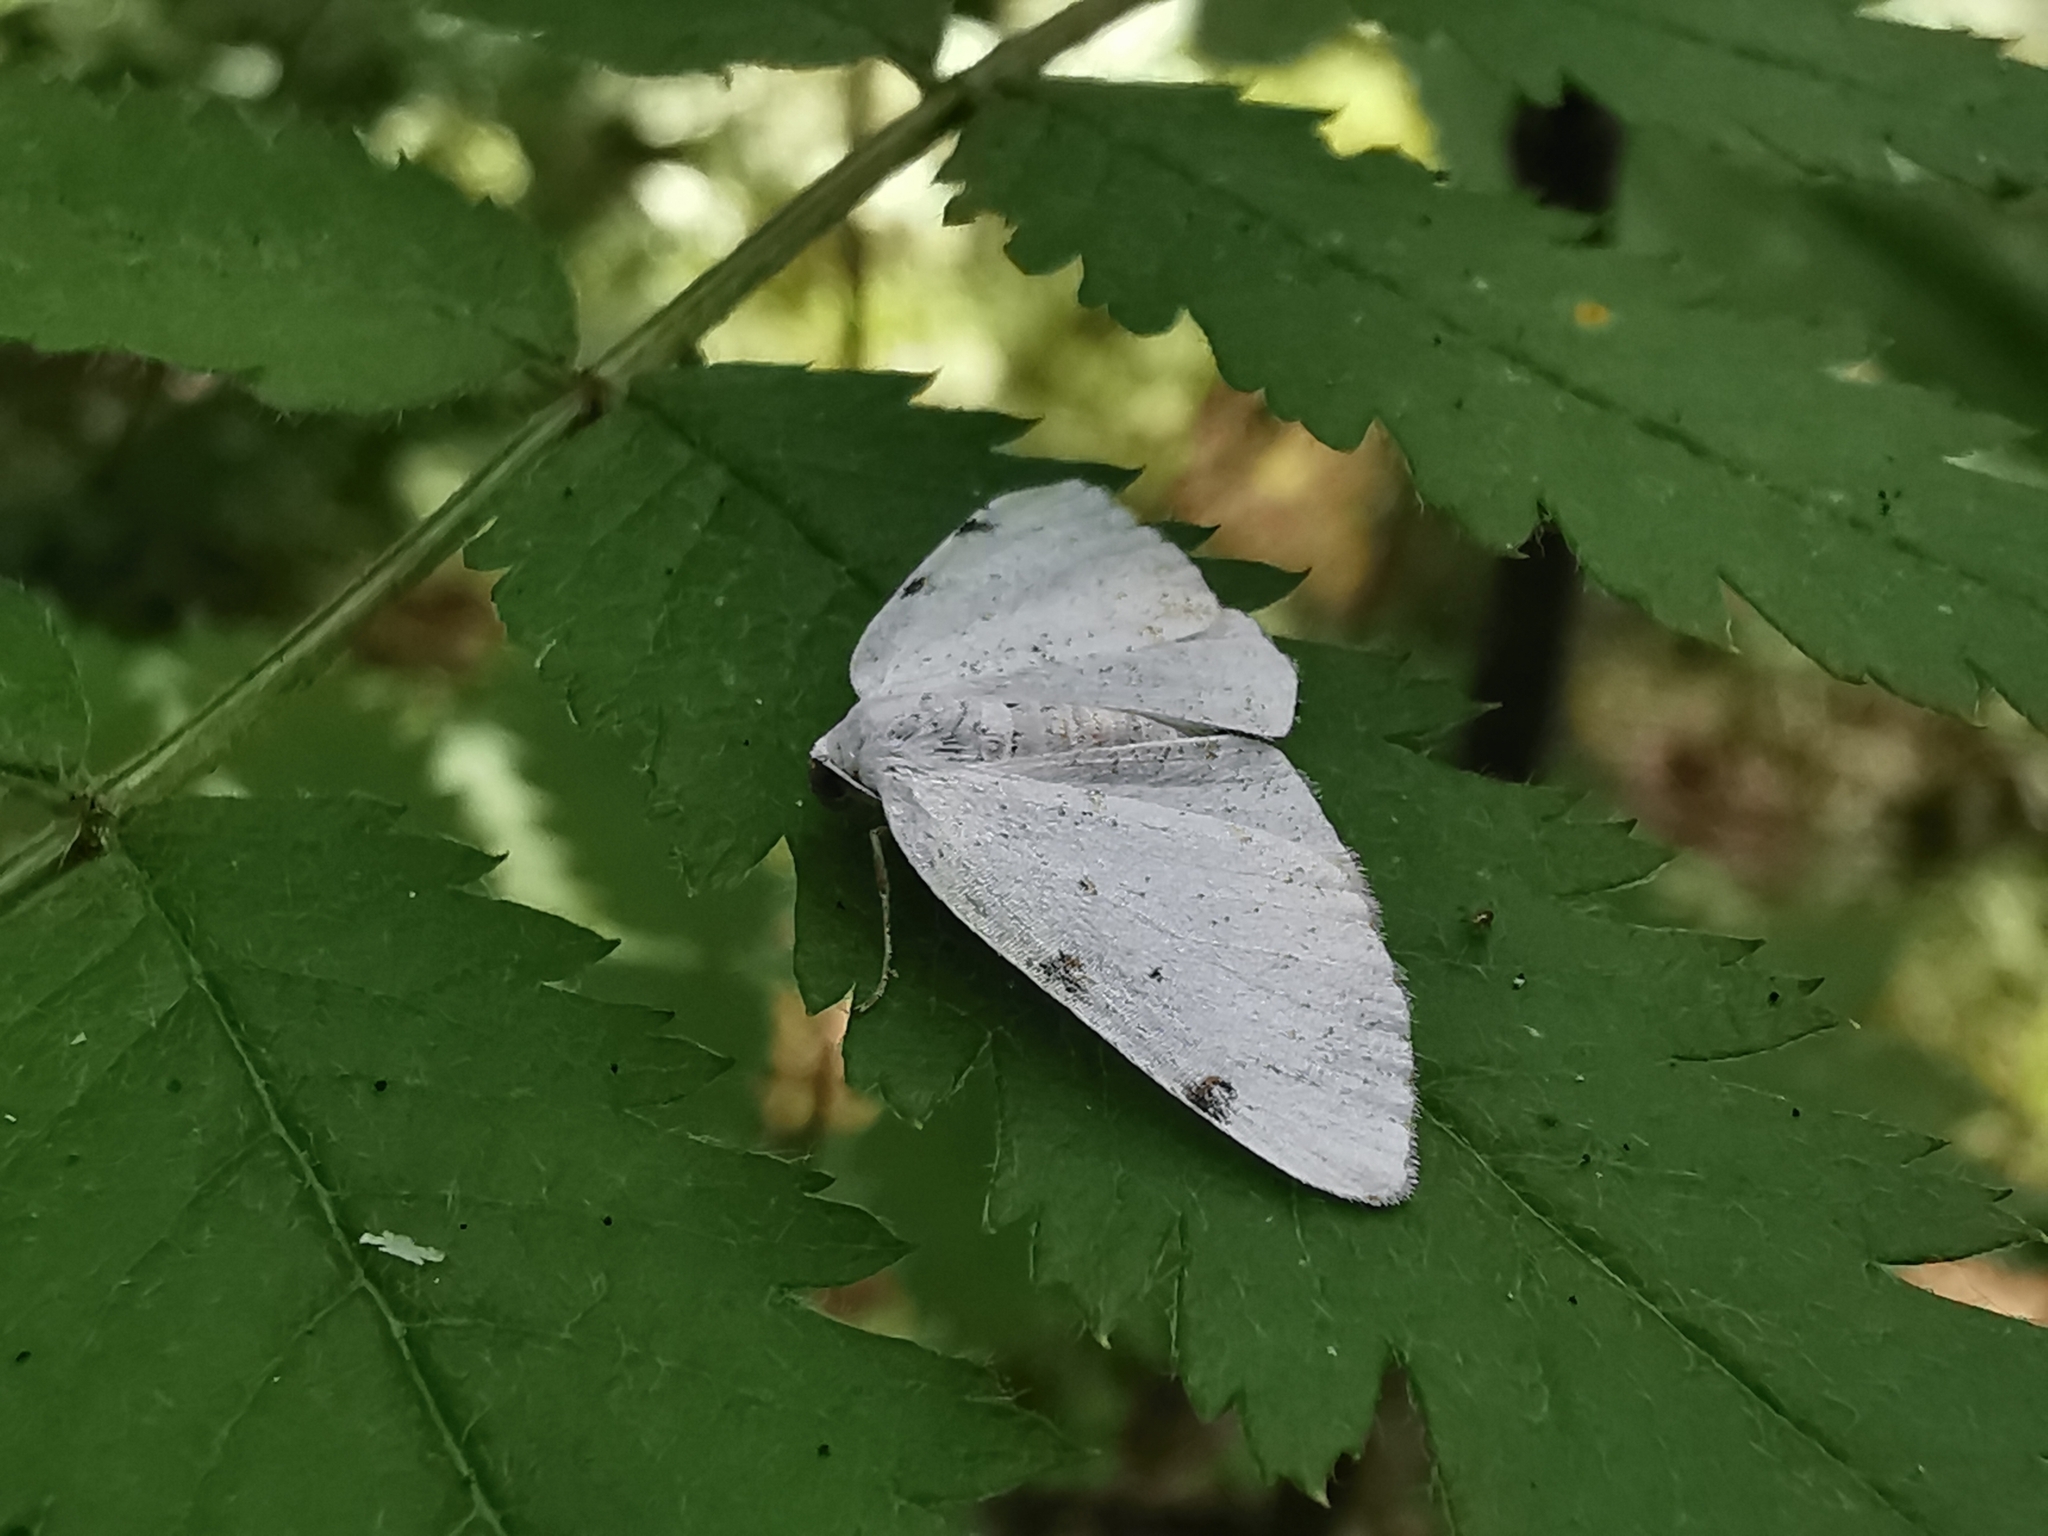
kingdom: Animalia
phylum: Arthropoda
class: Insecta
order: Lepidoptera
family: Geometridae
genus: Lomographa
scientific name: Lomographa bimaculata
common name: White-pinion spotted
